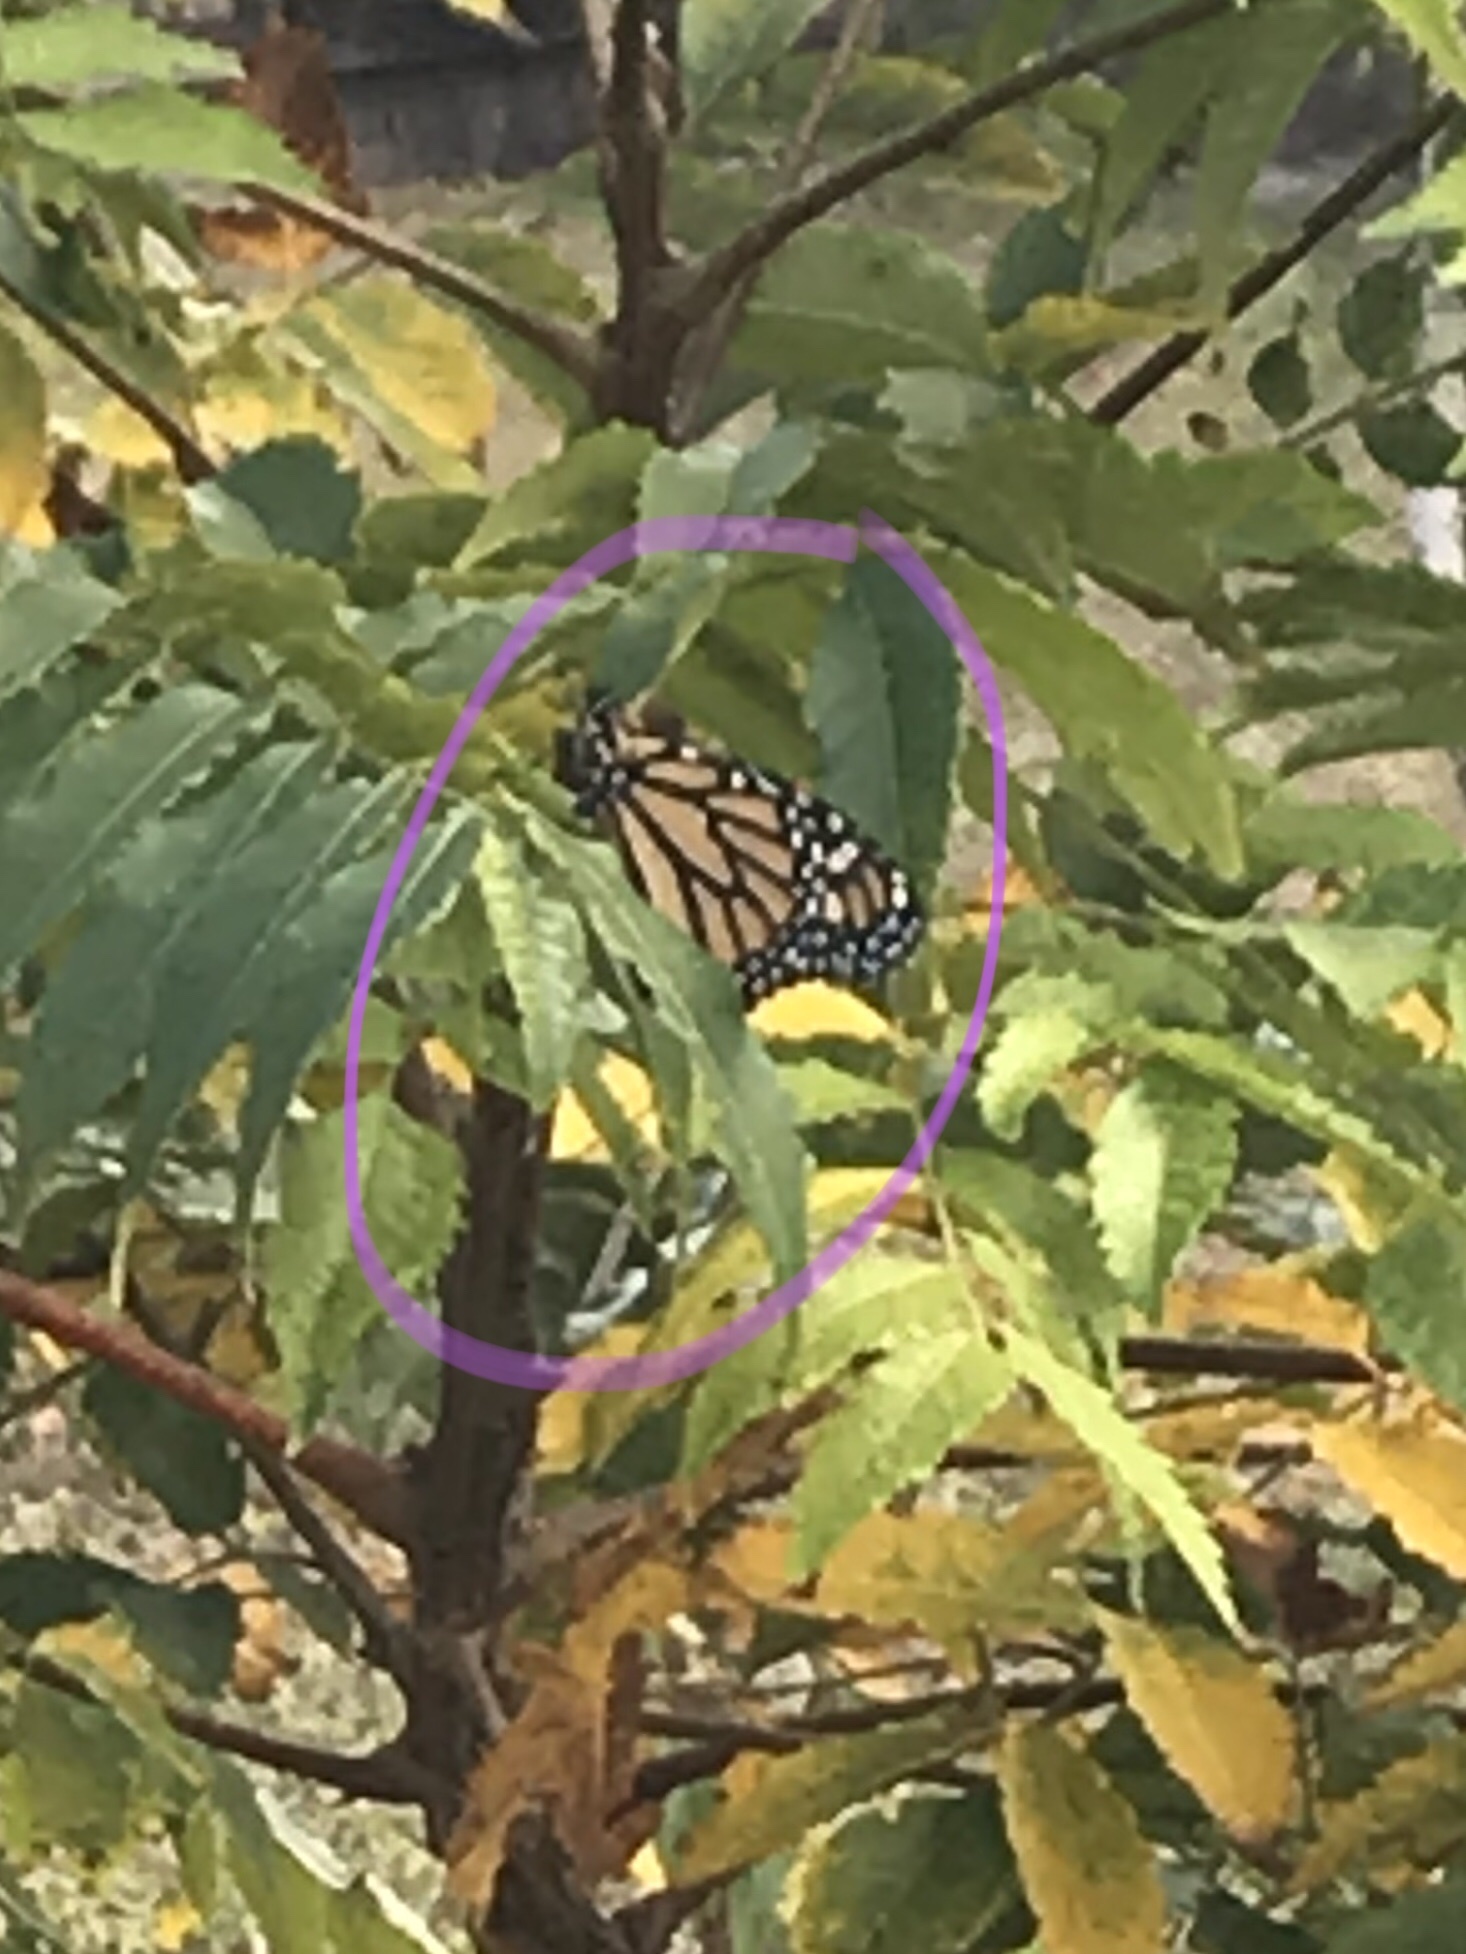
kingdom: Animalia
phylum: Arthropoda
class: Insecta
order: Lepidoptera
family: Nymphalidae
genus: Danaus
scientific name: Danaus plexippus
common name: Monarch
